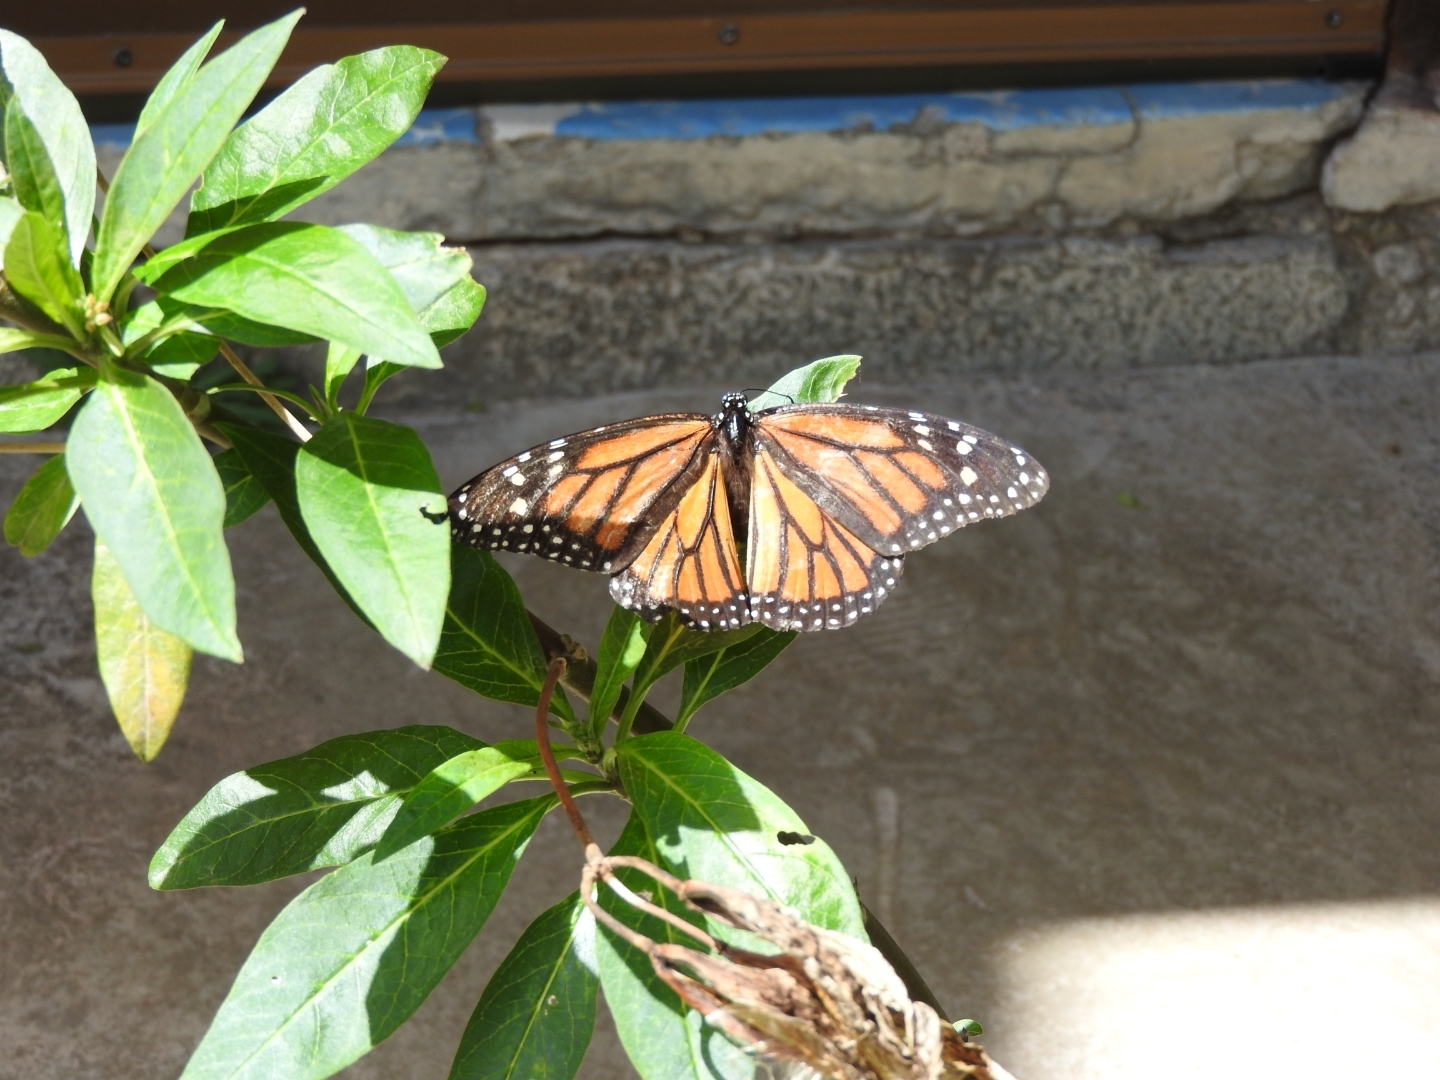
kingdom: Animalia
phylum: Arthropoda
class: Insecta
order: Lepidoptera
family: Nymphalidae
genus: Danaus
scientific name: Danaus plexippus
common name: Monarch
